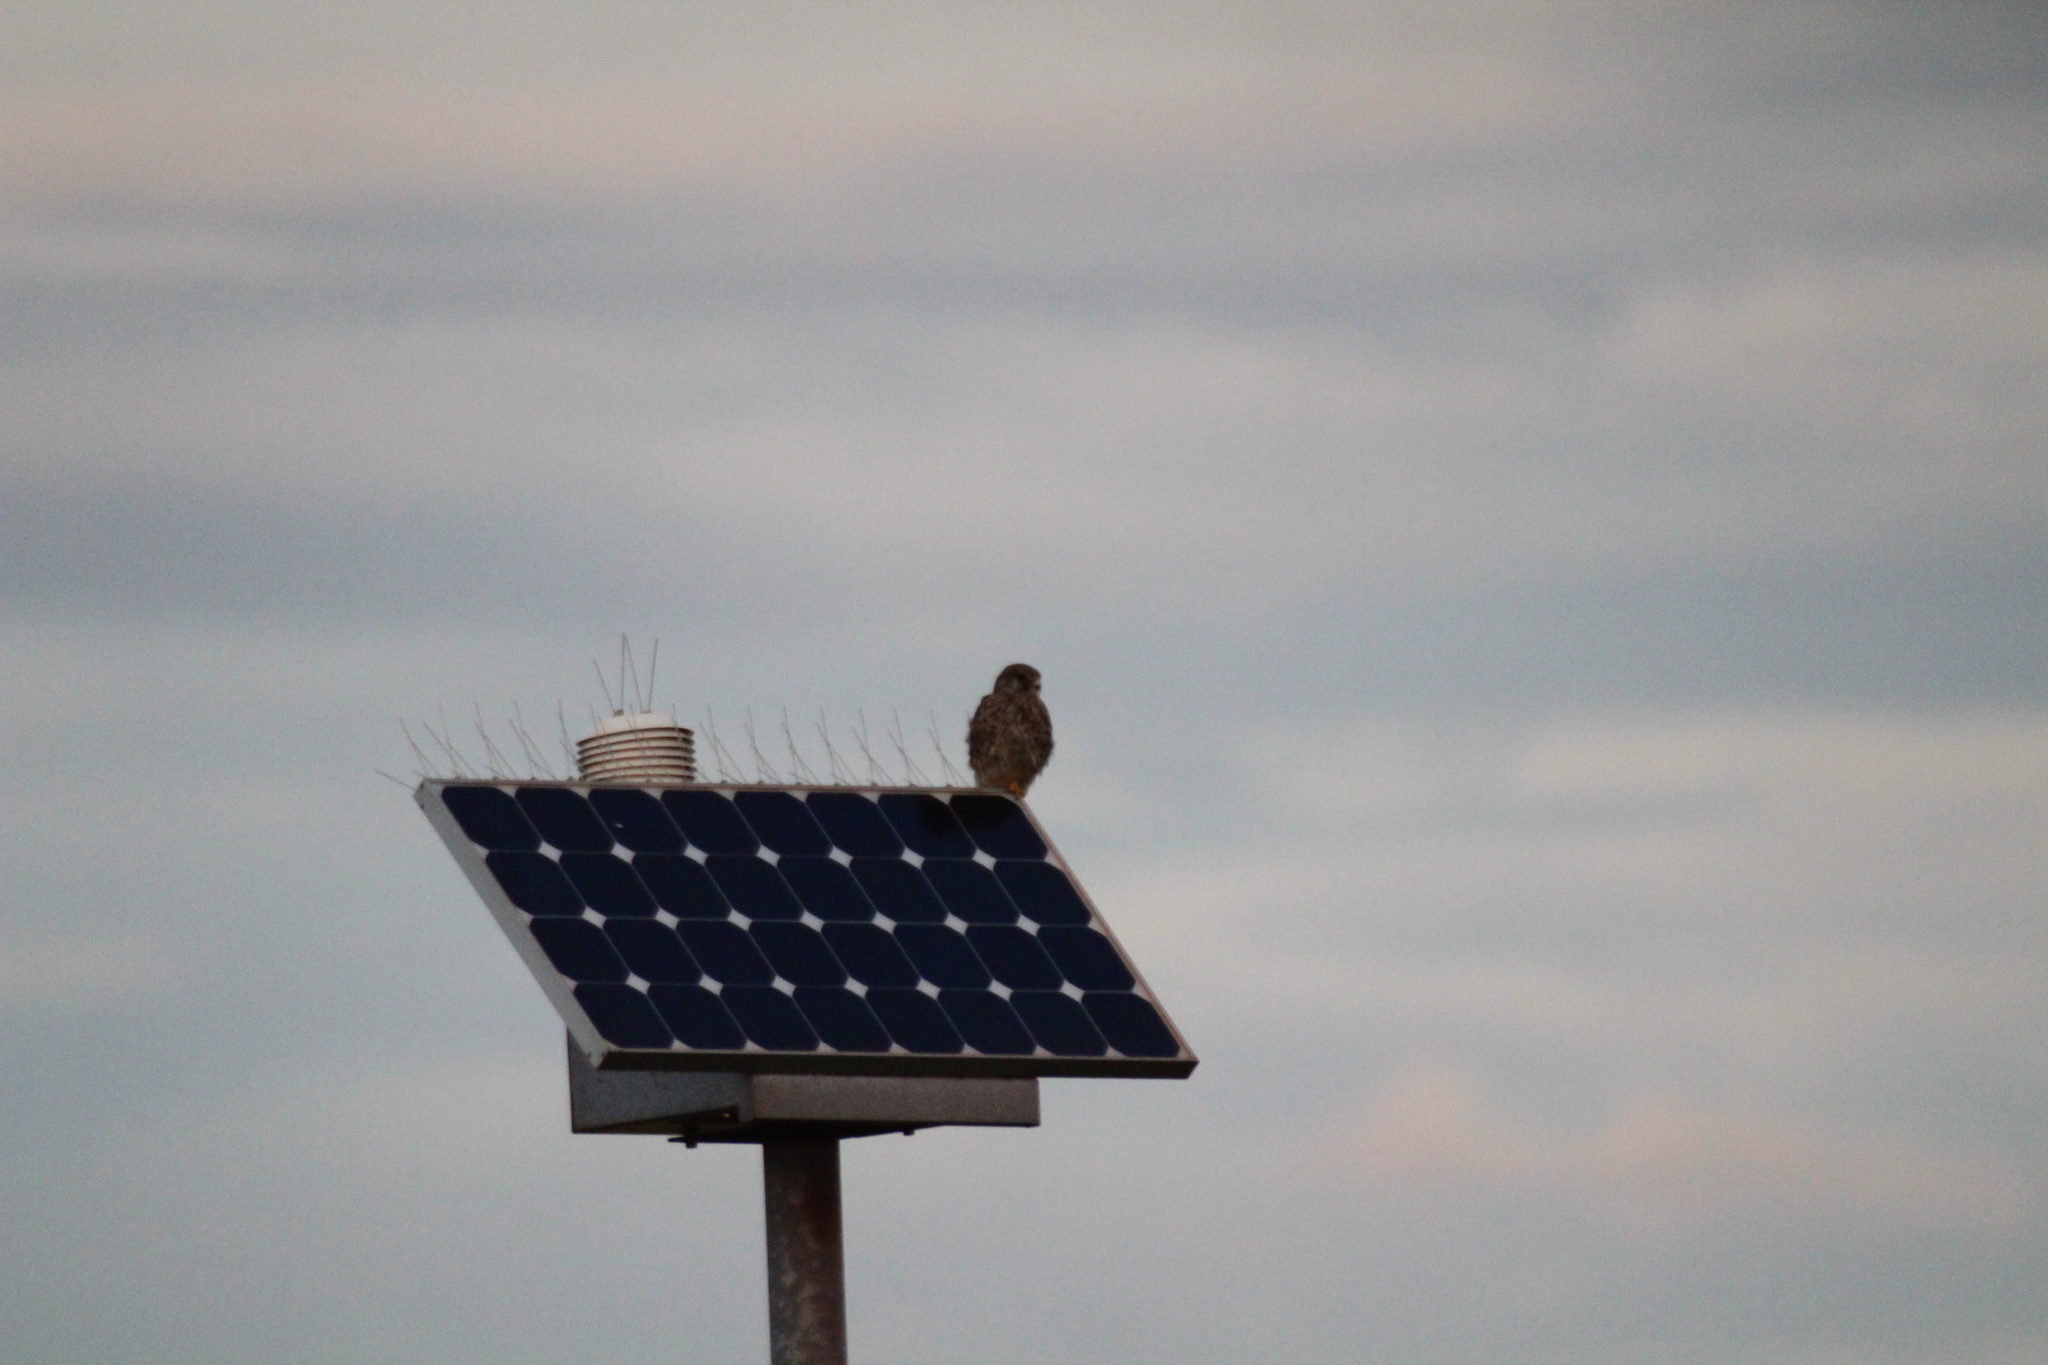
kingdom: Animalia
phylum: Chordata
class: Aves
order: Falconiformes
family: Falconidae
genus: Falco
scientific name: Falco tinnunculus
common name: Common kestrel
